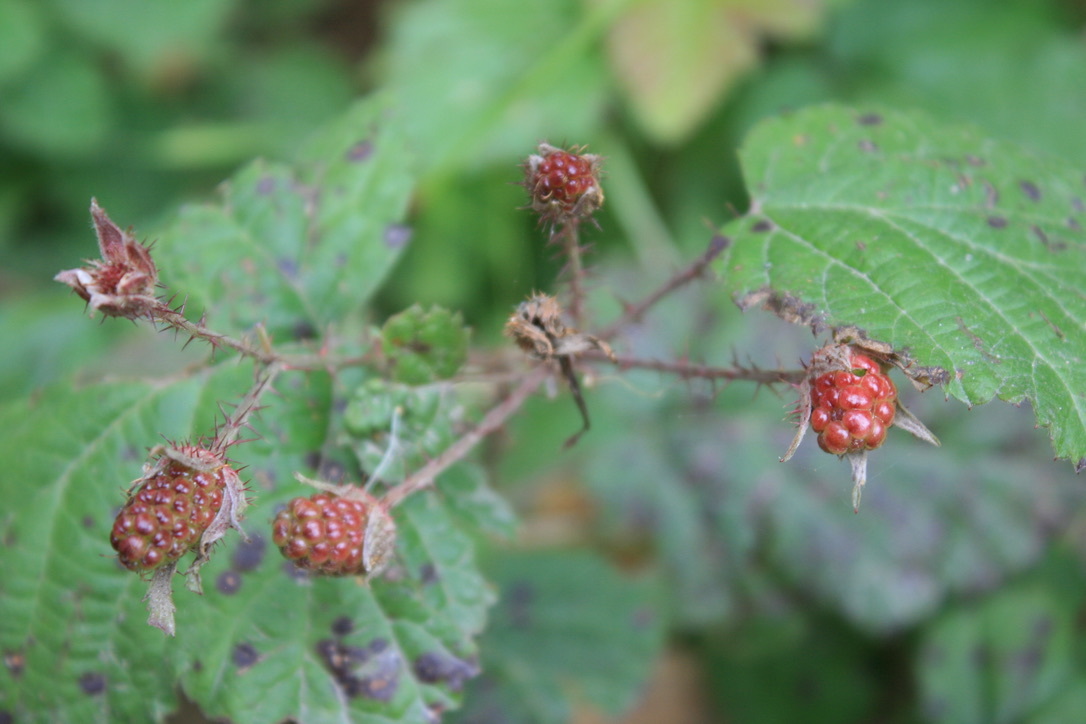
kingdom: Plantae
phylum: Tracheophyta
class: Magnoliopsida
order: Rosales
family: Rosaceae
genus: Rubus
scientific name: Rubus ursinus
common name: Pacific blackberry
